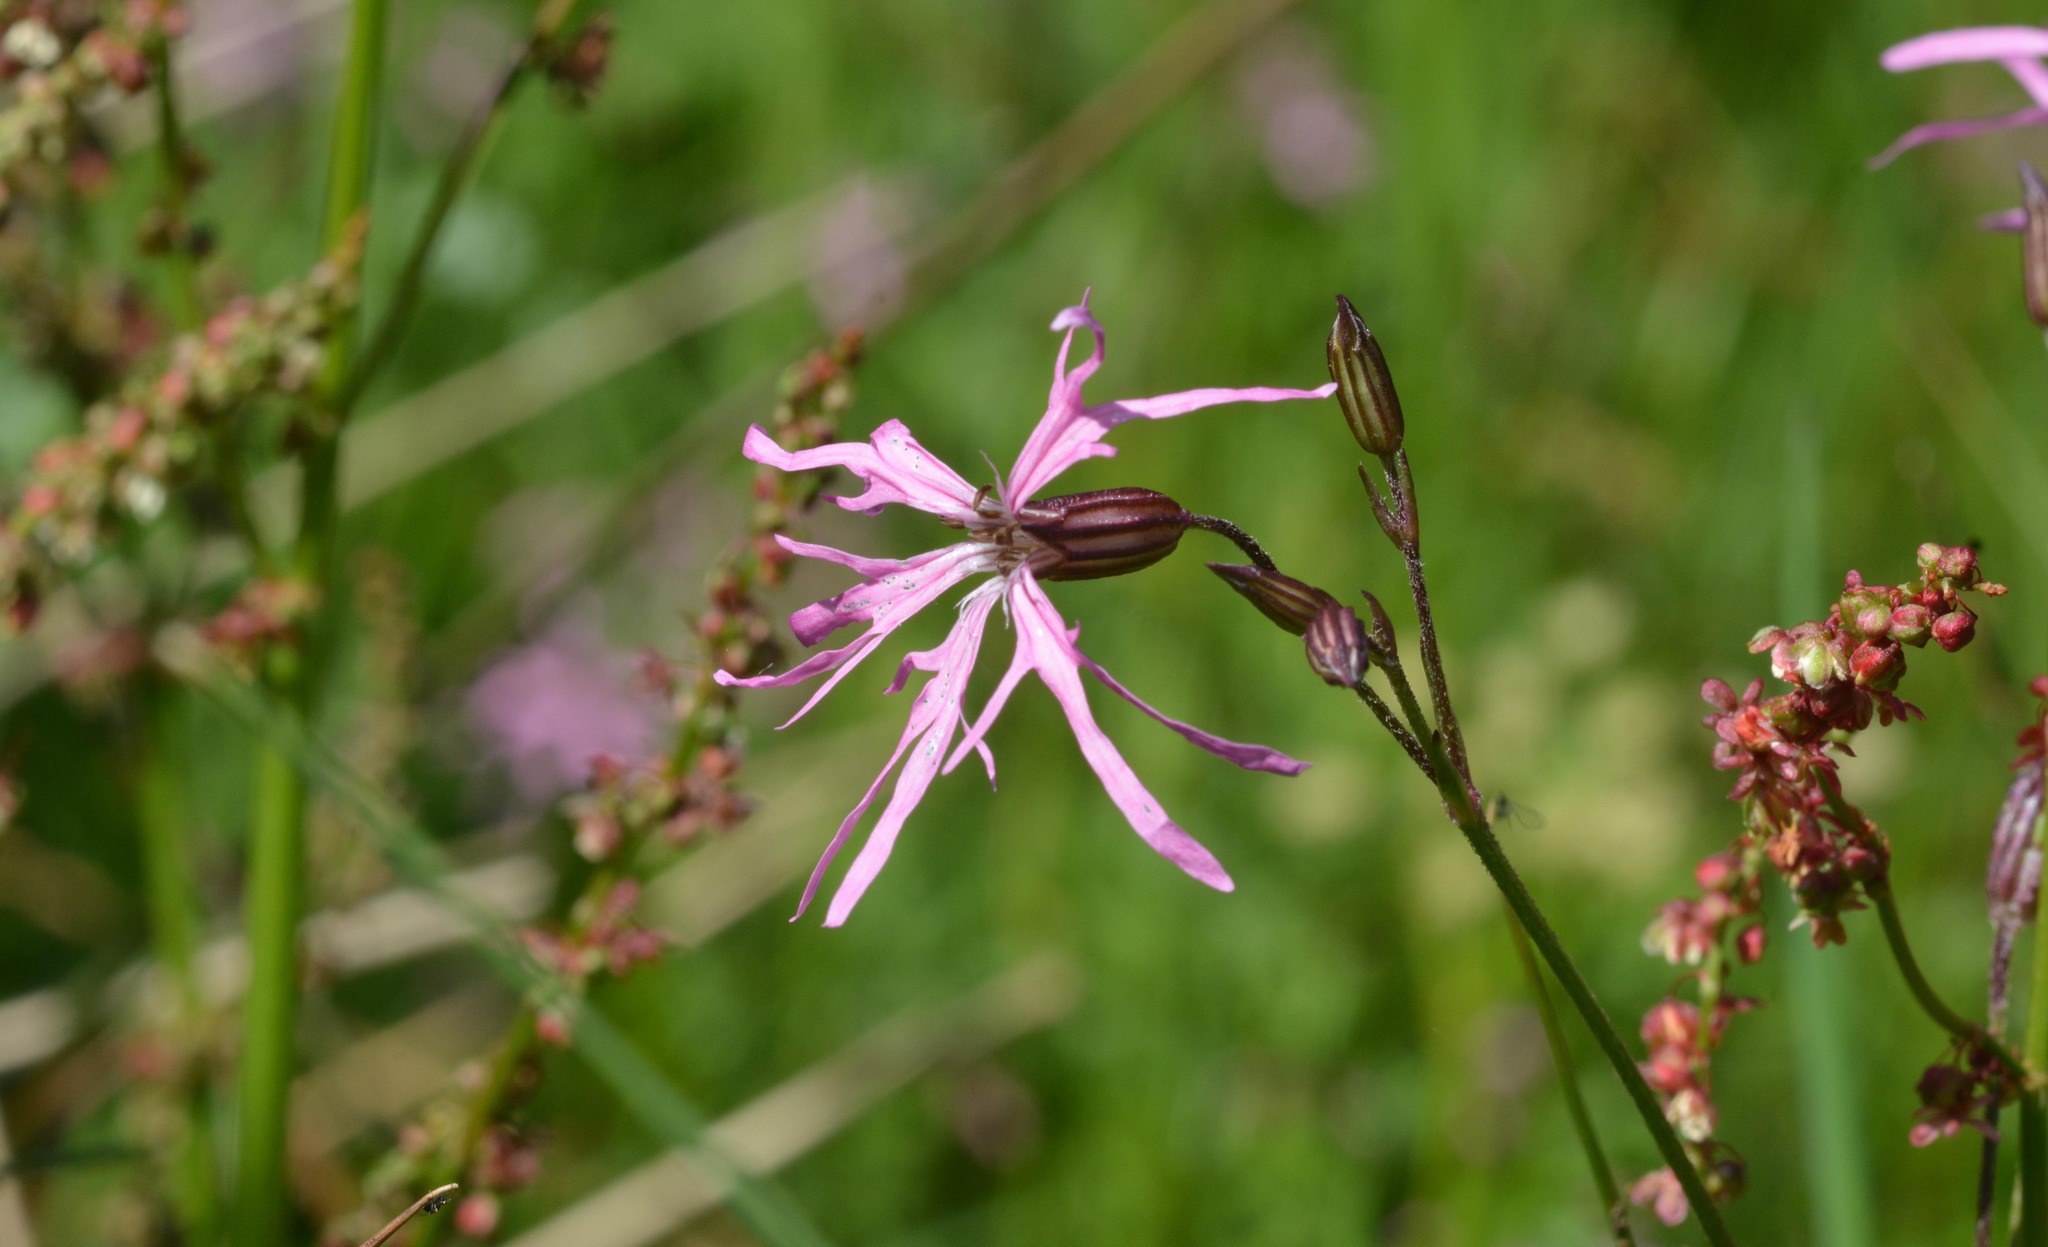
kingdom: Plantae
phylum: Tracheophyta
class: Magnoliopsida
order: Caryophyllales
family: Caryophyllaceae
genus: Silene
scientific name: Silene flos-cuculi
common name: Ragged-robin
